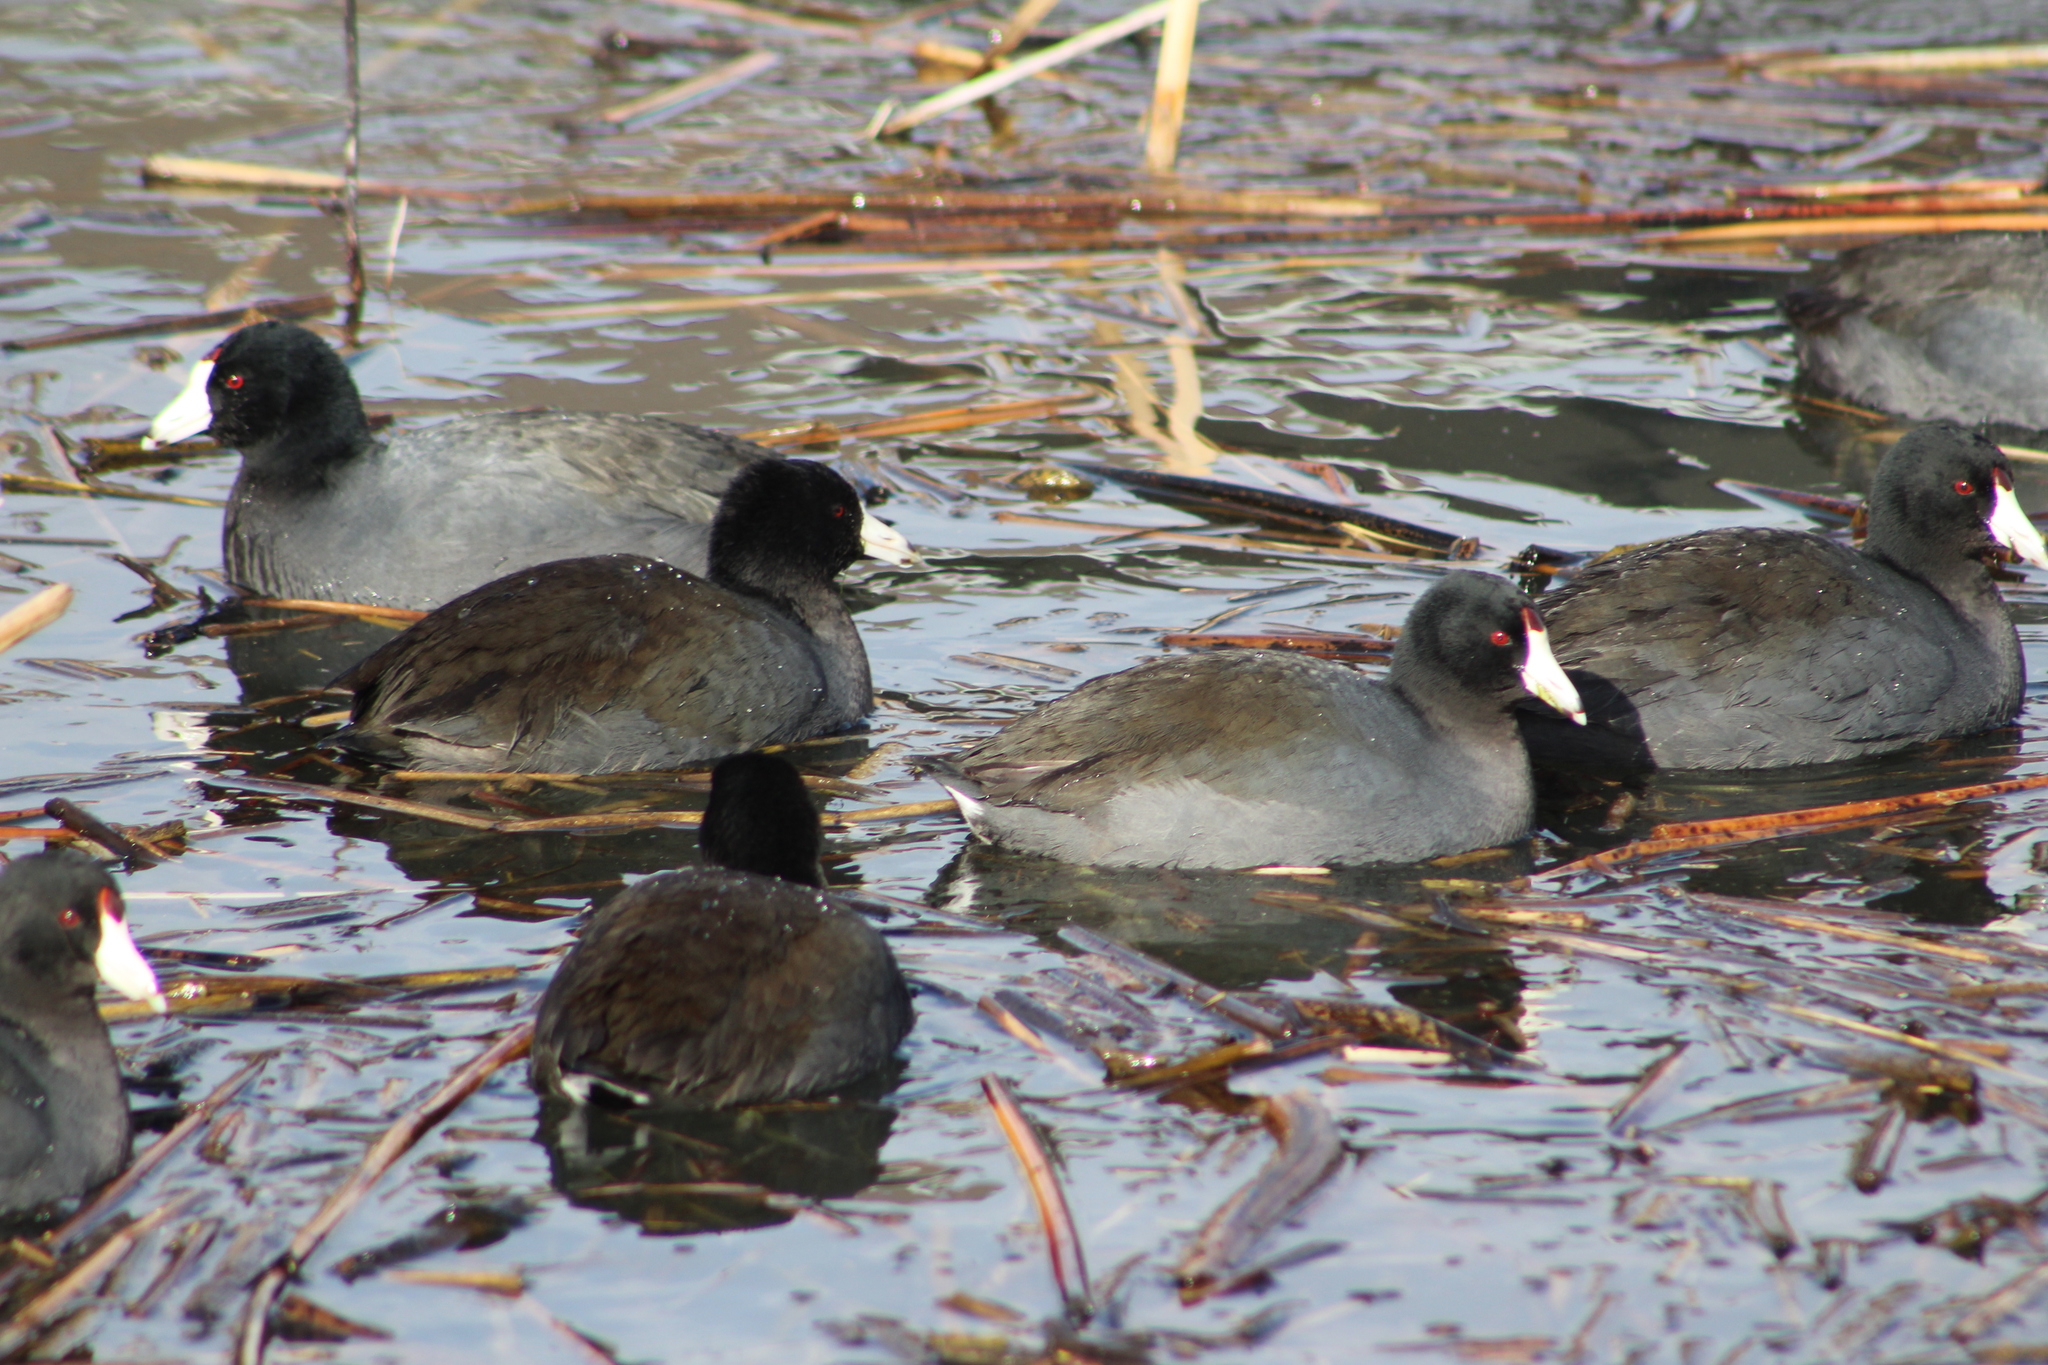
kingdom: Animalia
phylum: Chordata
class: Aves
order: Gruiformes
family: Rallidae
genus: Fulica
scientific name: Fulica americana
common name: American coot
